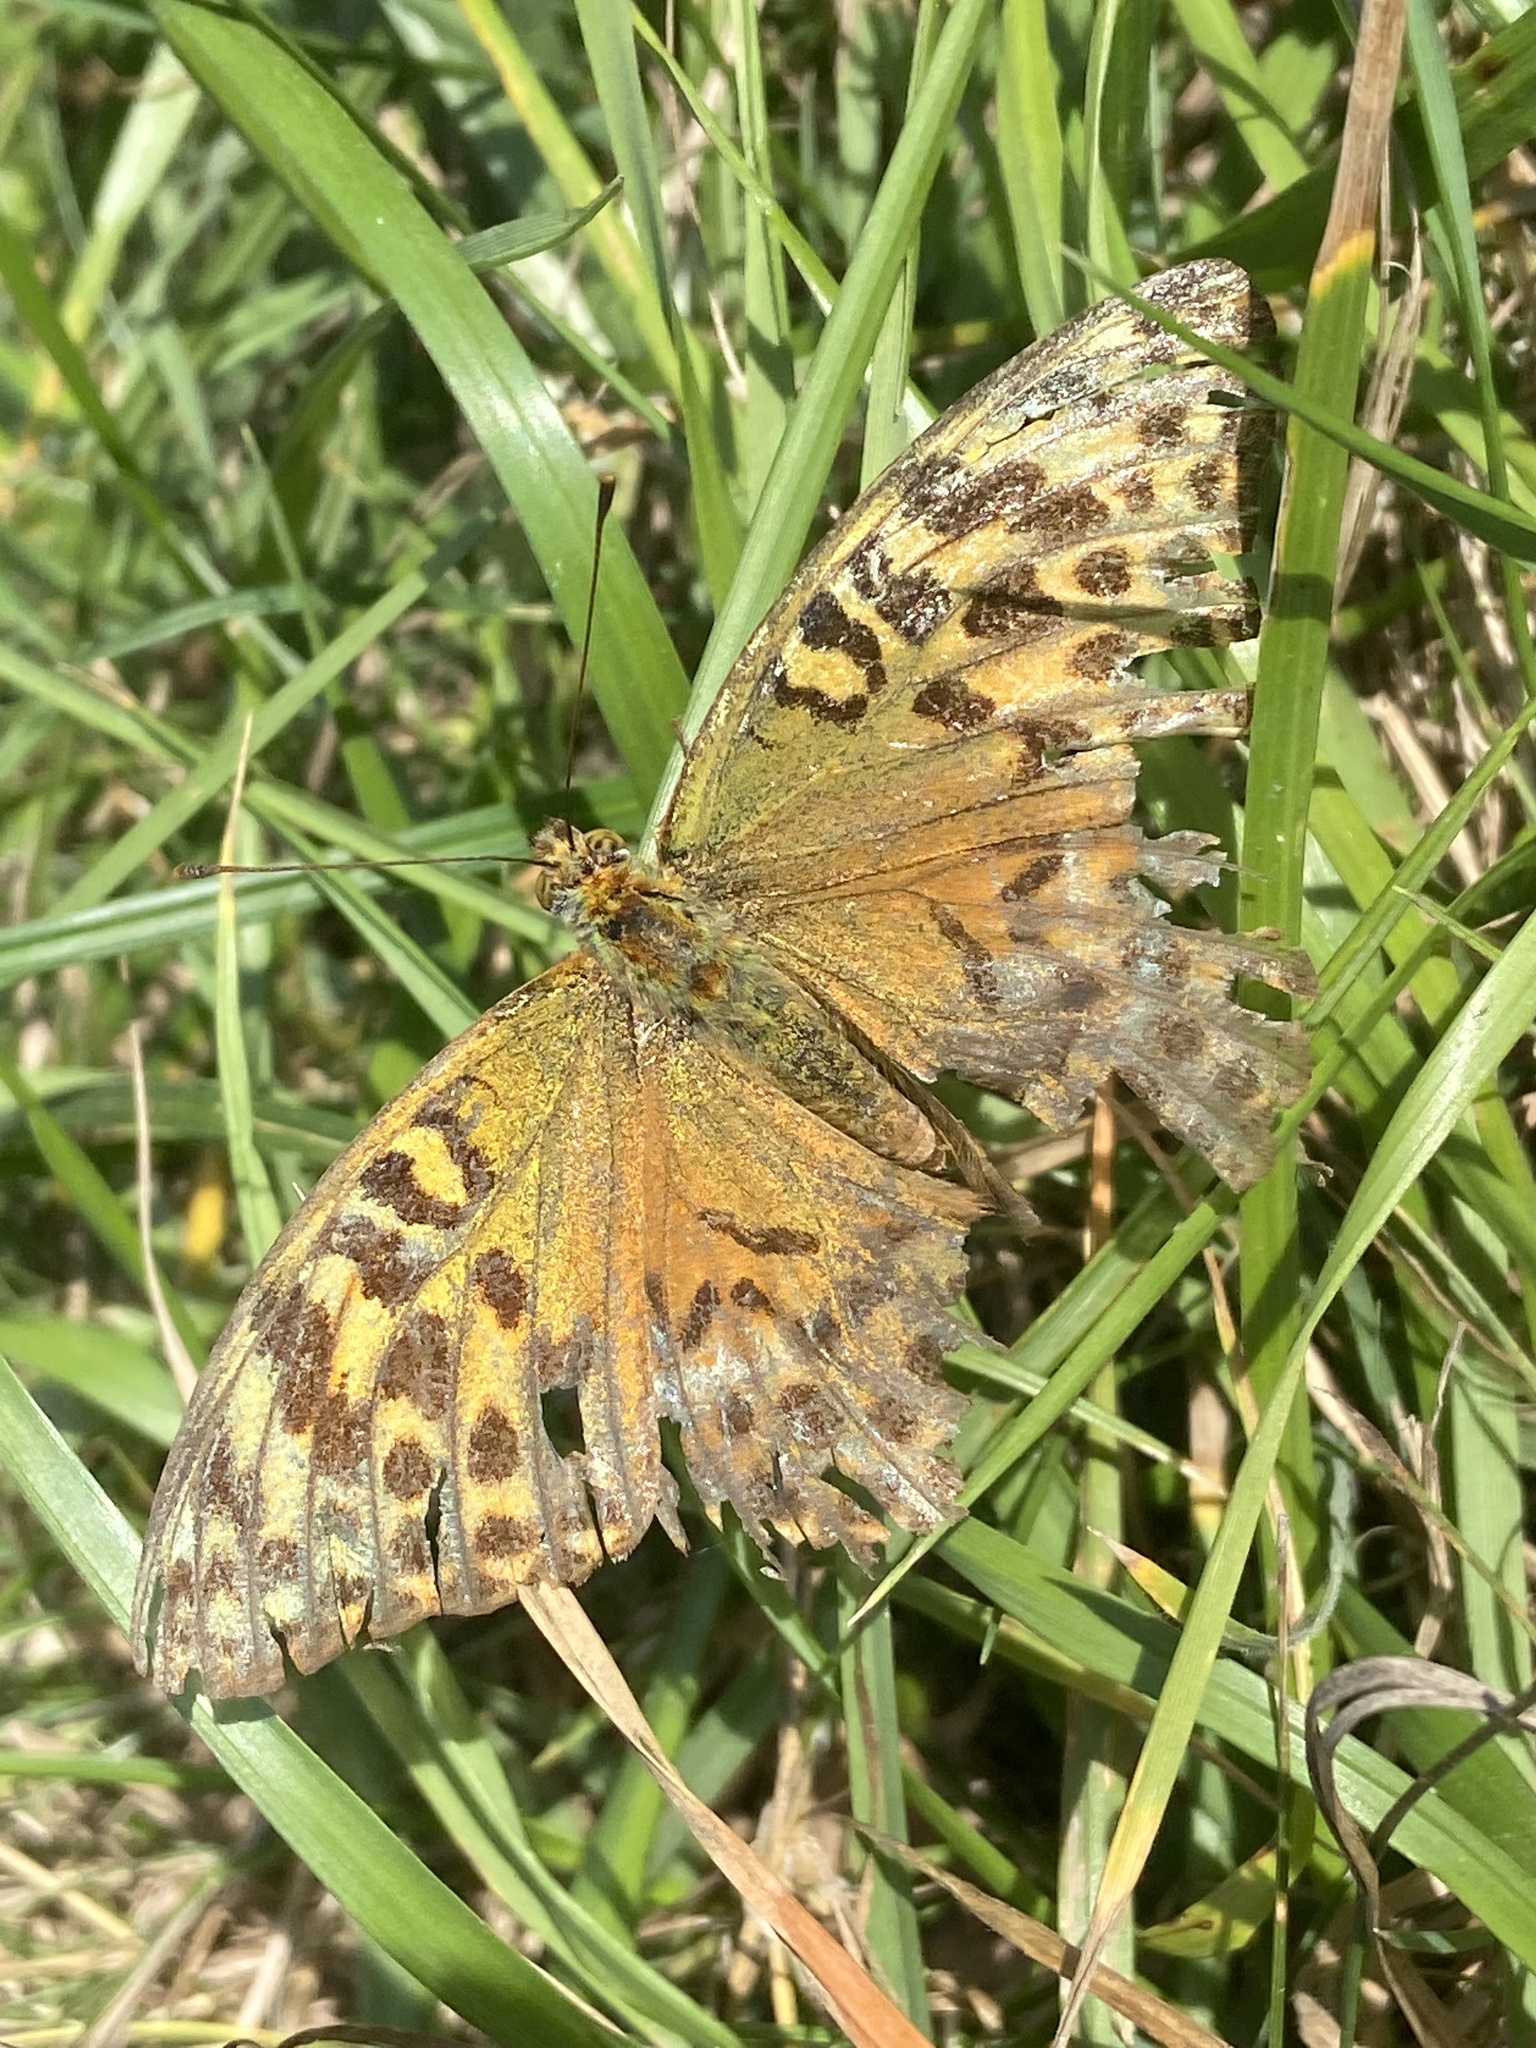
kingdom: Animalia
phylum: Arthropoda
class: Insecta
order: Lepidoptera
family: Nymphalidae
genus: Argynnis
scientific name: Argynnis paphia
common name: Silver-washed fritillary
